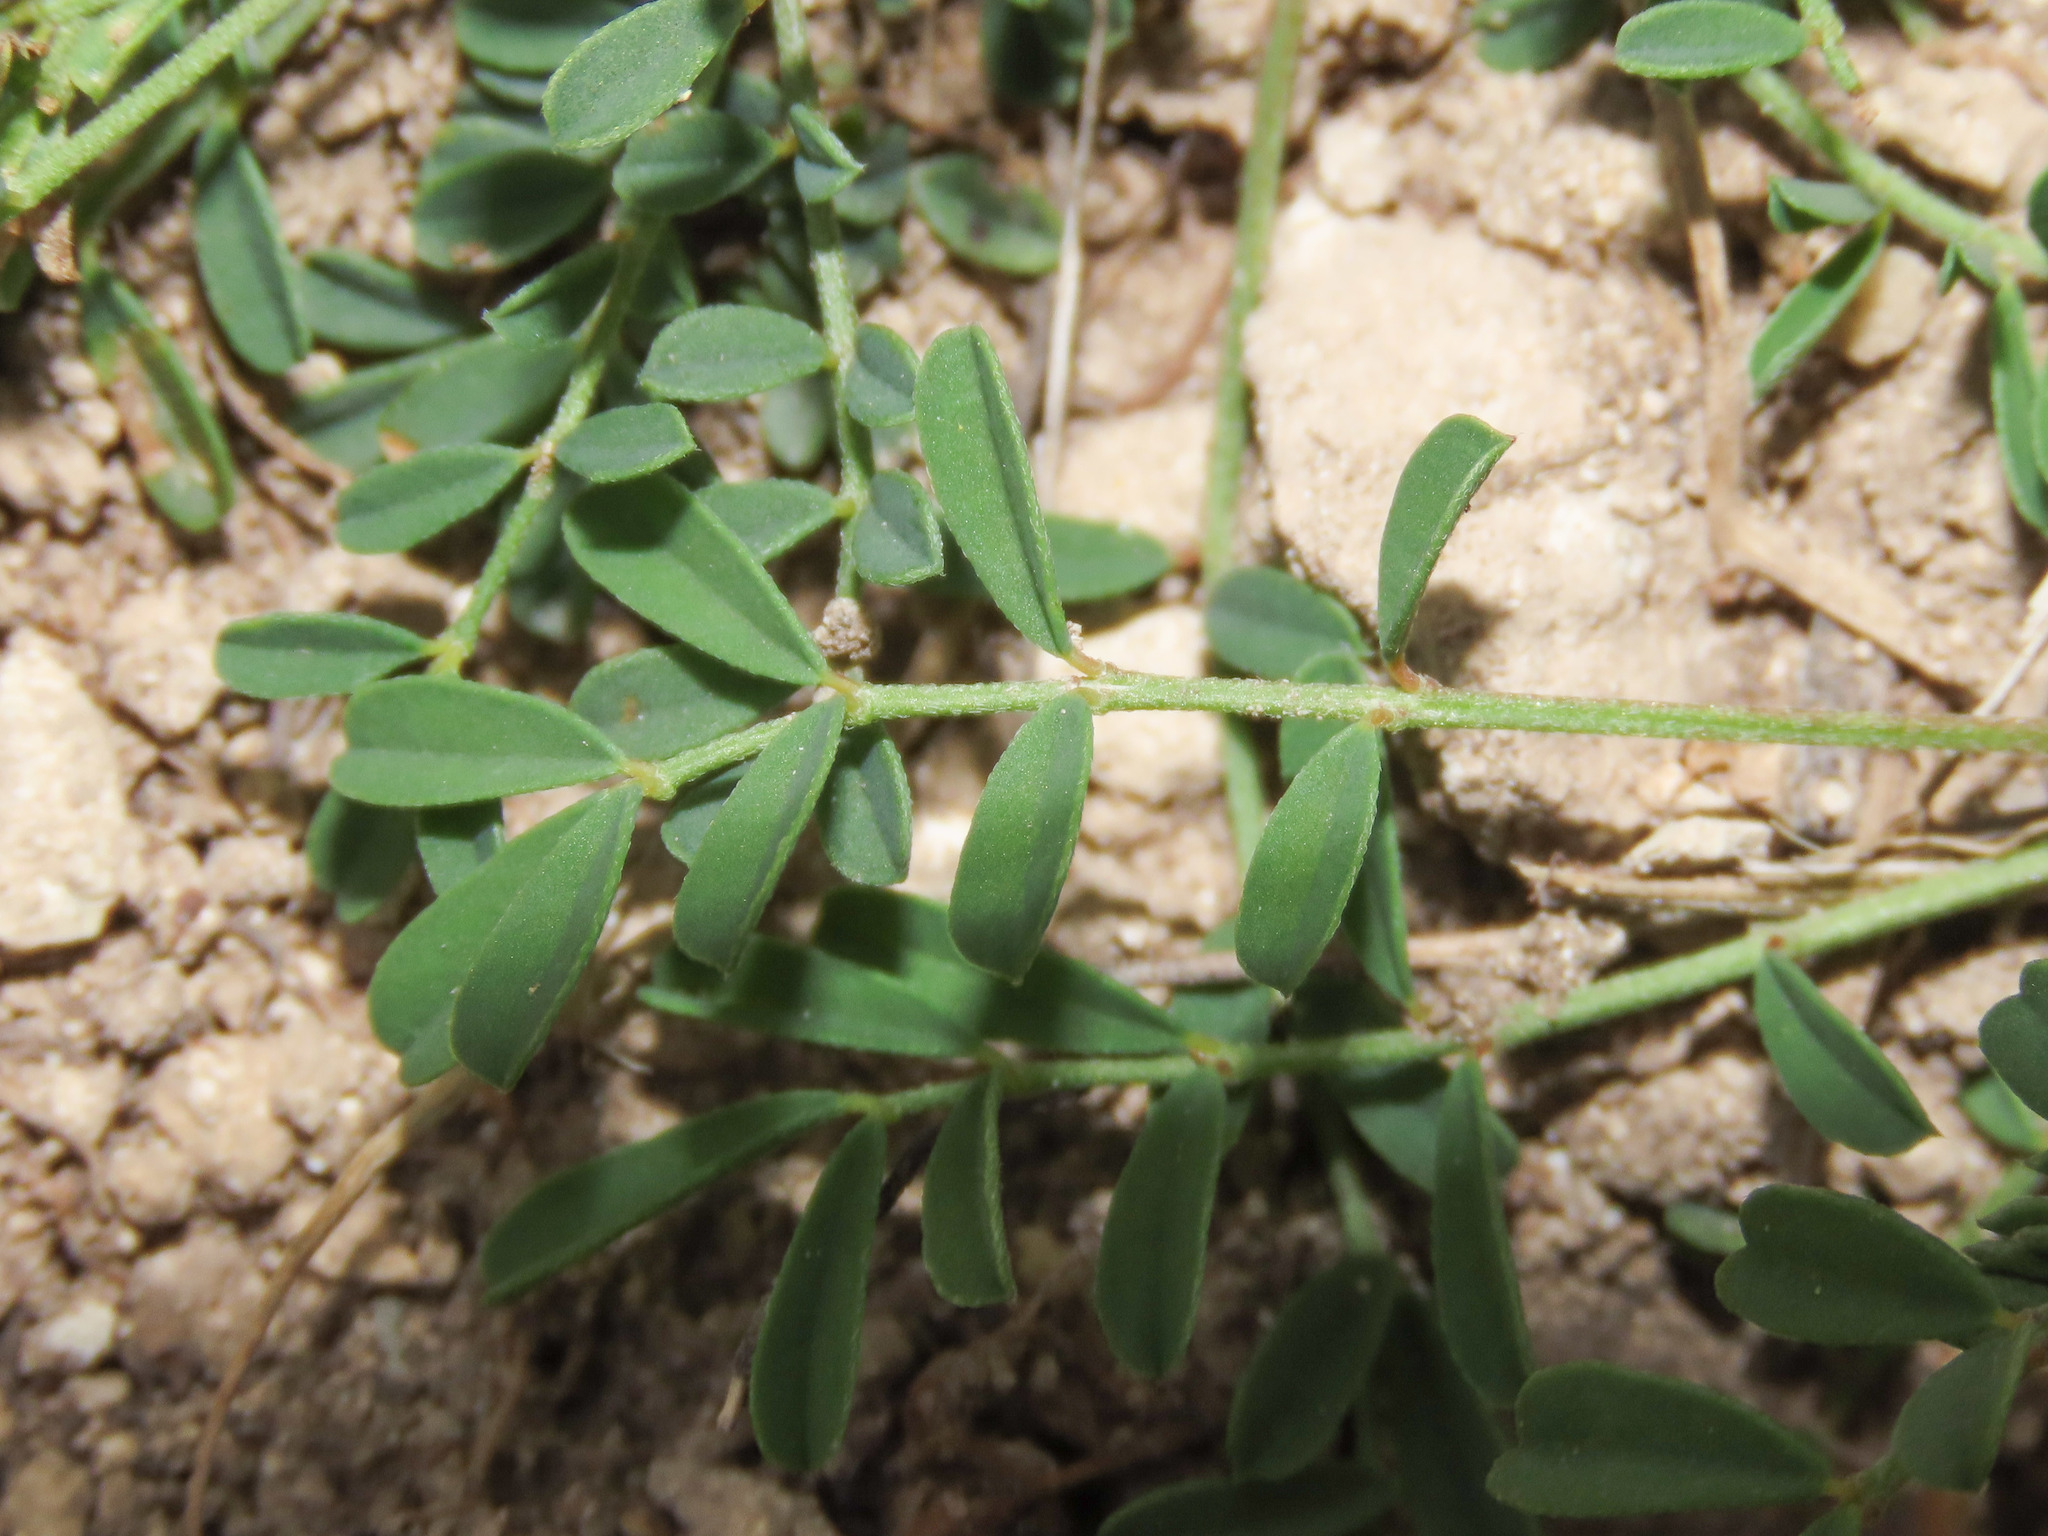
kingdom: Plantae
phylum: Tracheophyta
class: Magnoliopsida
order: Fabales
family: Fabaceae
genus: Hippocrepis
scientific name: Hippocrepis comosa
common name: Horseshoe vetch
